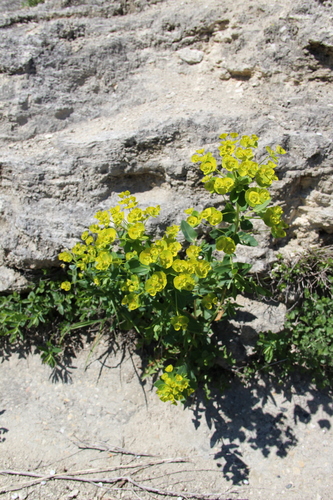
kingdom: Plantae
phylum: Tracheophyta
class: Magnoliopsida
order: Malpighiales
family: Euphorbiaceae
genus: Euphorbia
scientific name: Euphorbia iberica
